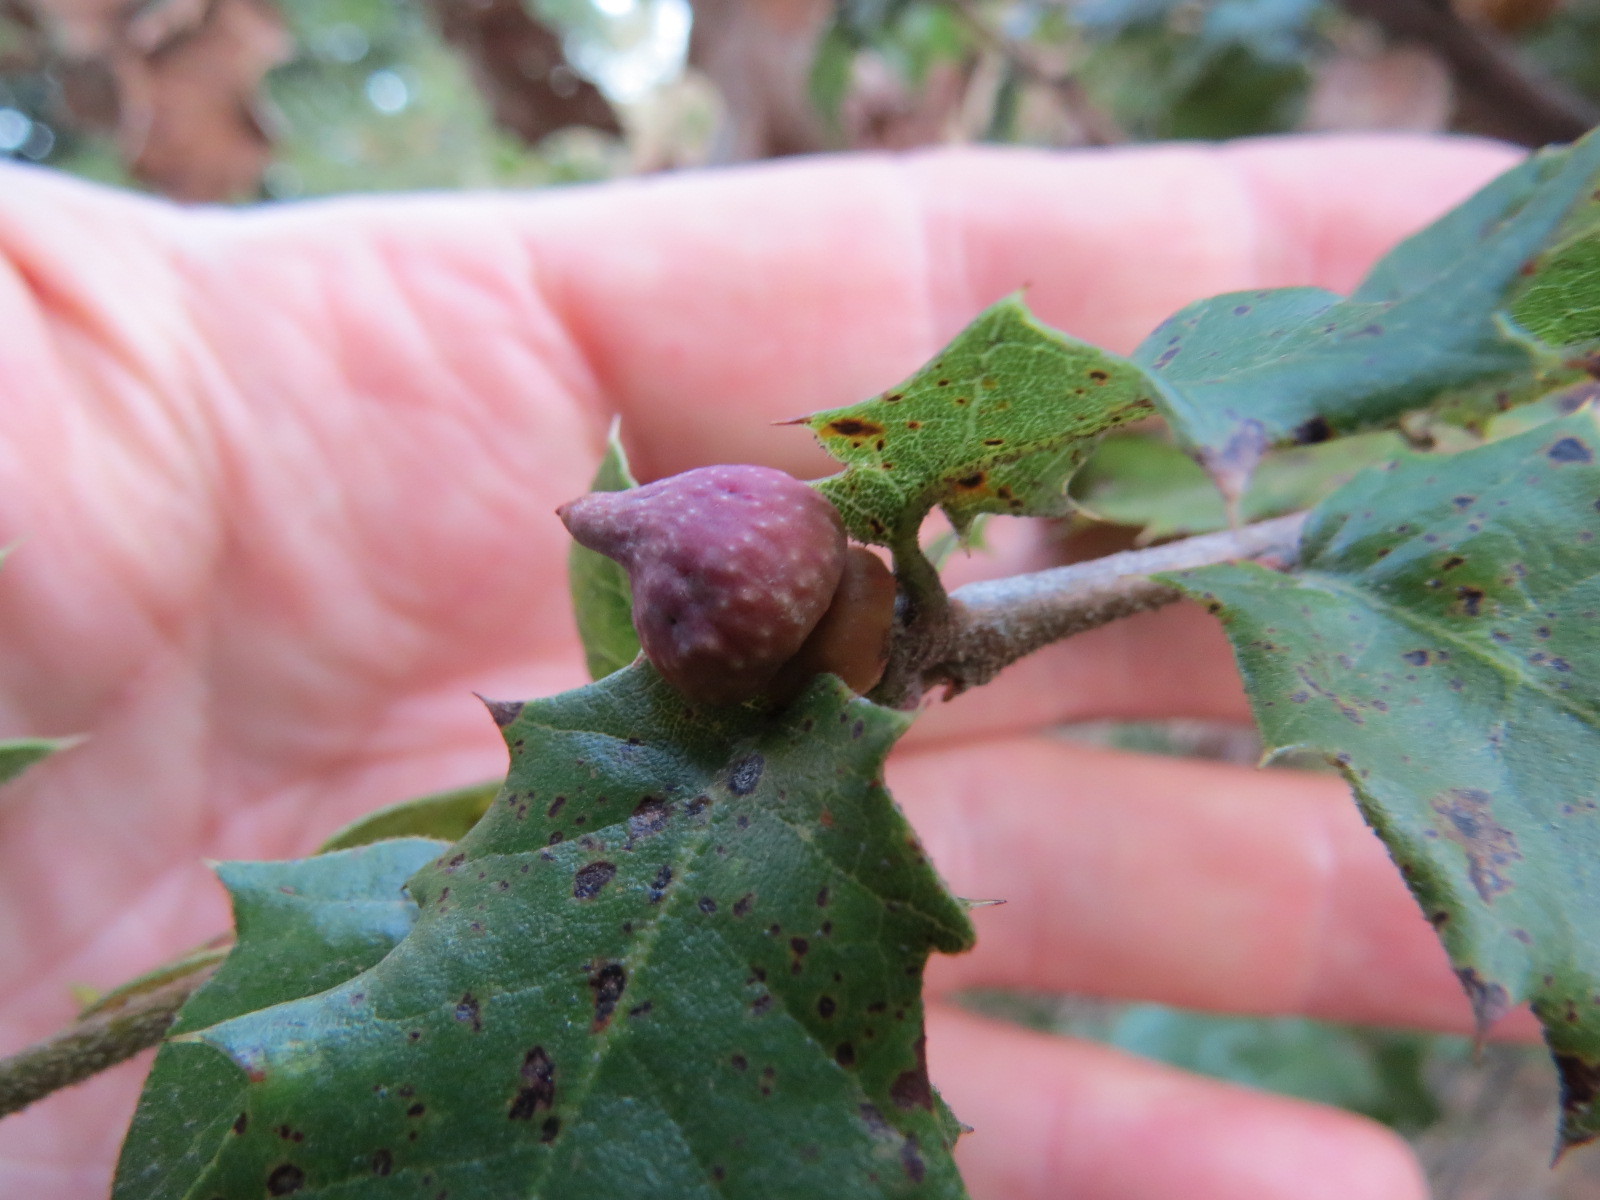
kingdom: Animalia
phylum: Arthropoda
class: Insecta
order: Hymenoptera
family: Cynipidae
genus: Heteroecus
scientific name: Heteroecus
